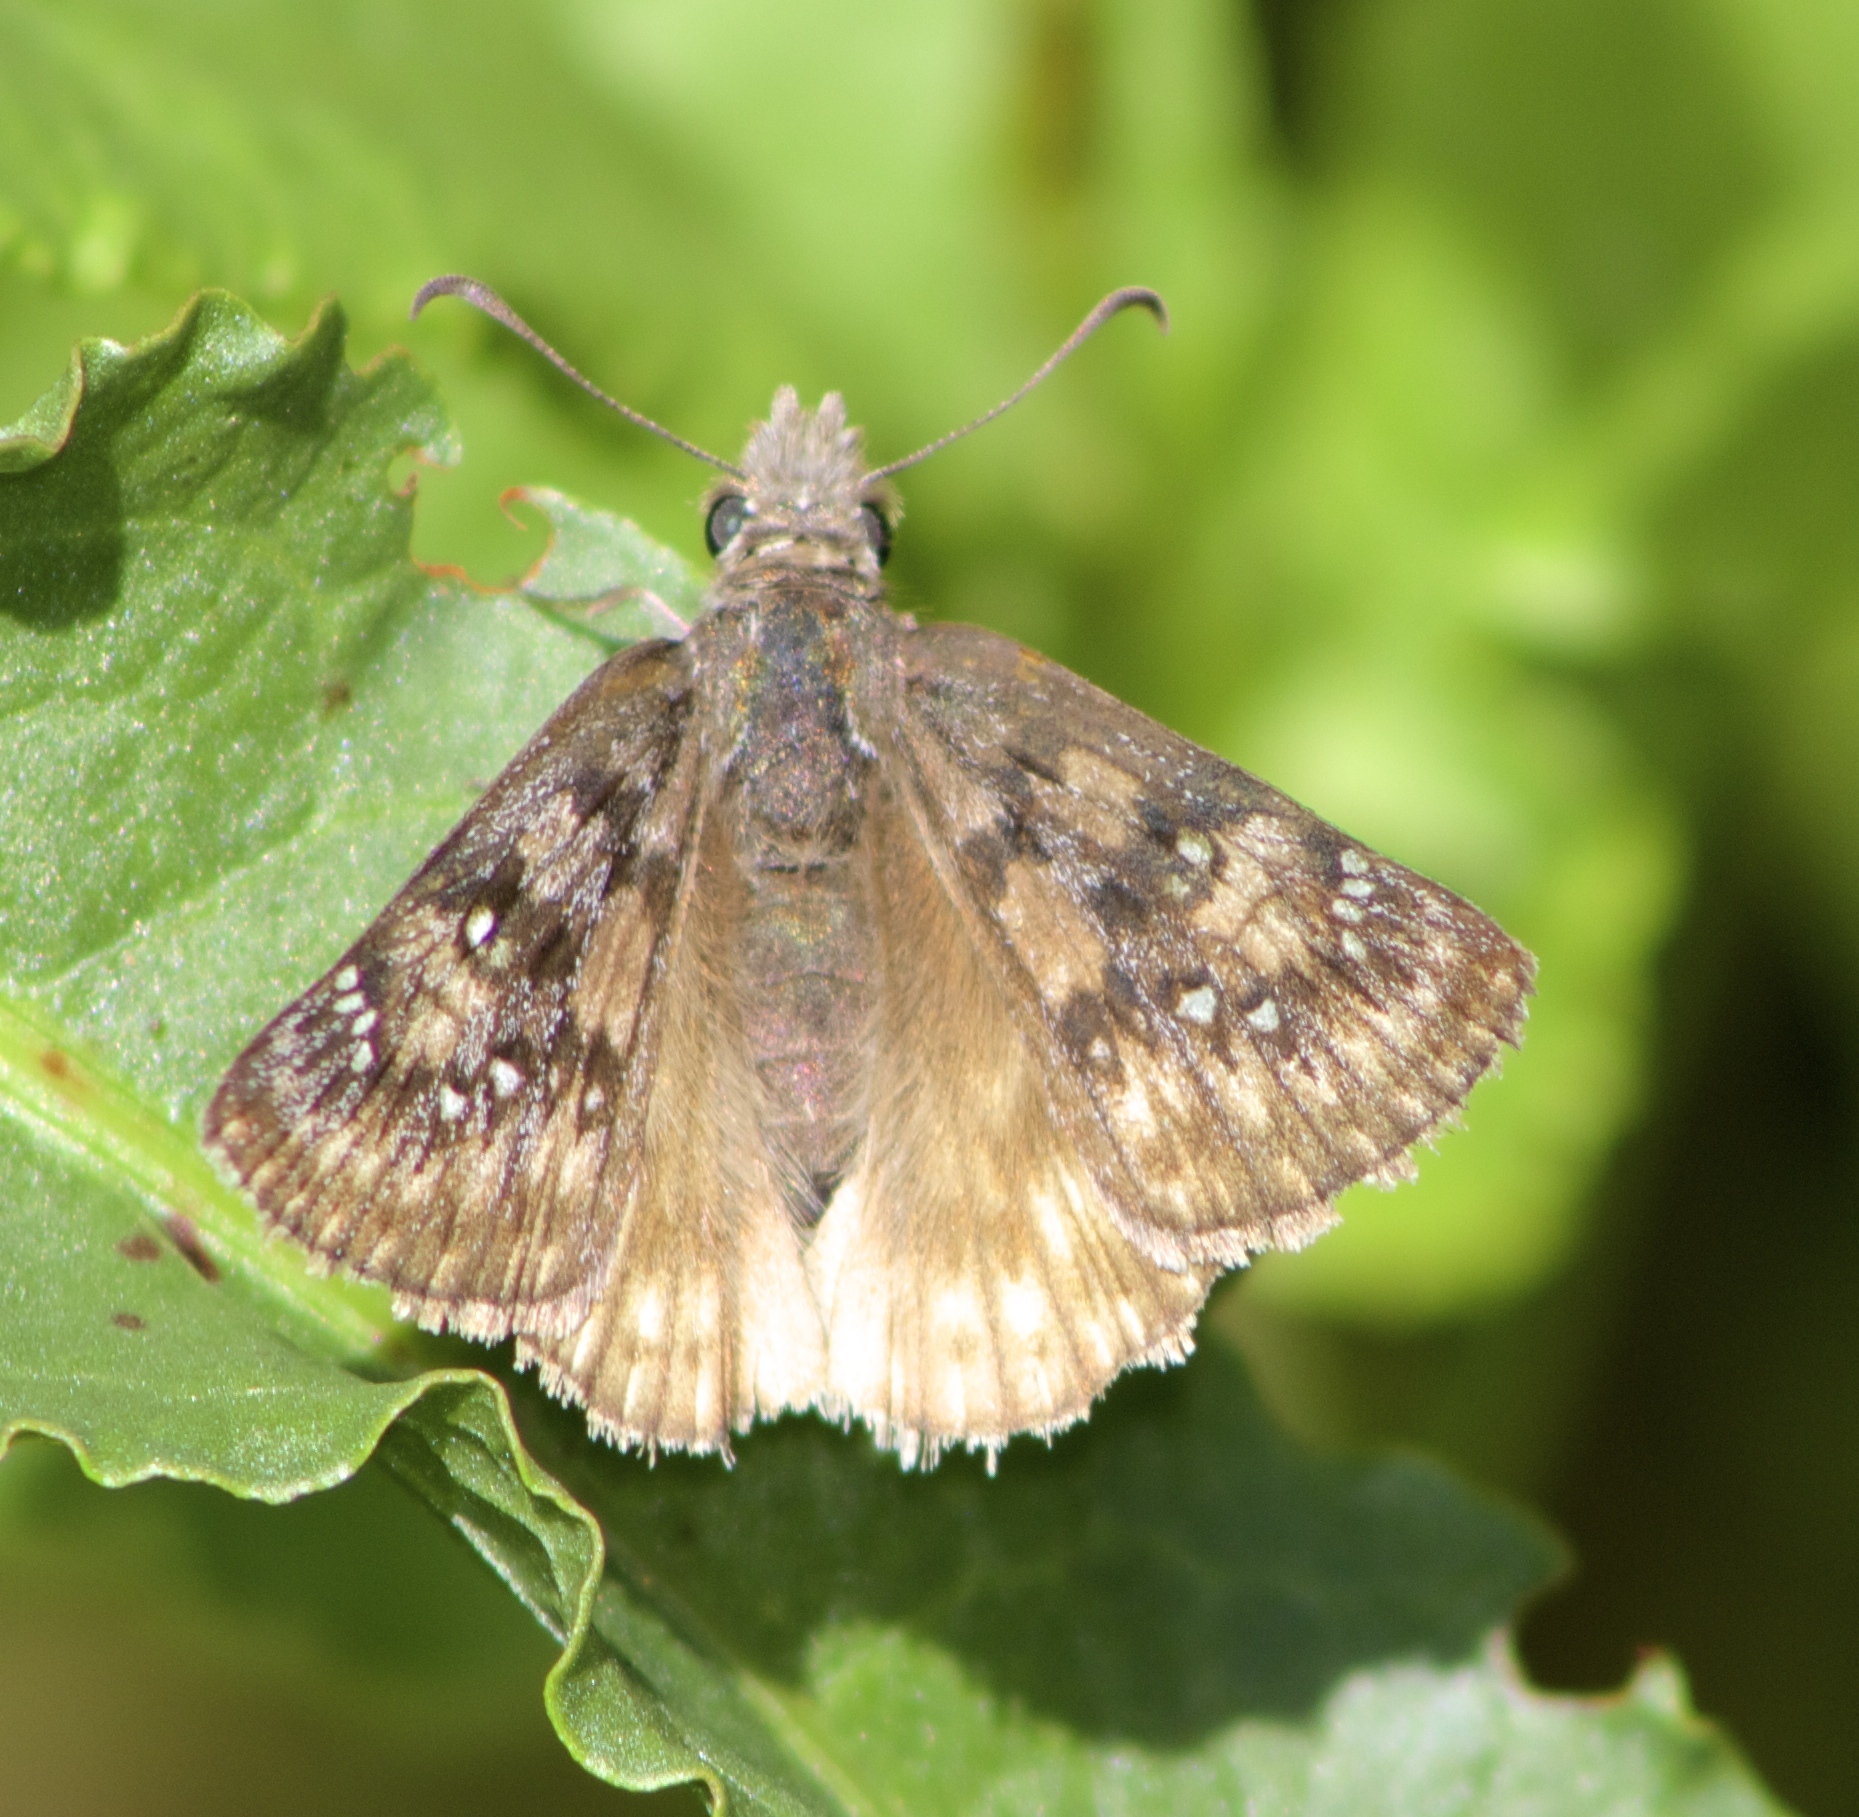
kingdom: Animalia
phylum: Arthropoda
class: Insecta
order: Lepidoptera
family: Hesperiidae
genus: Erynnis
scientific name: Erynnis propertius
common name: Propertius duskywing
